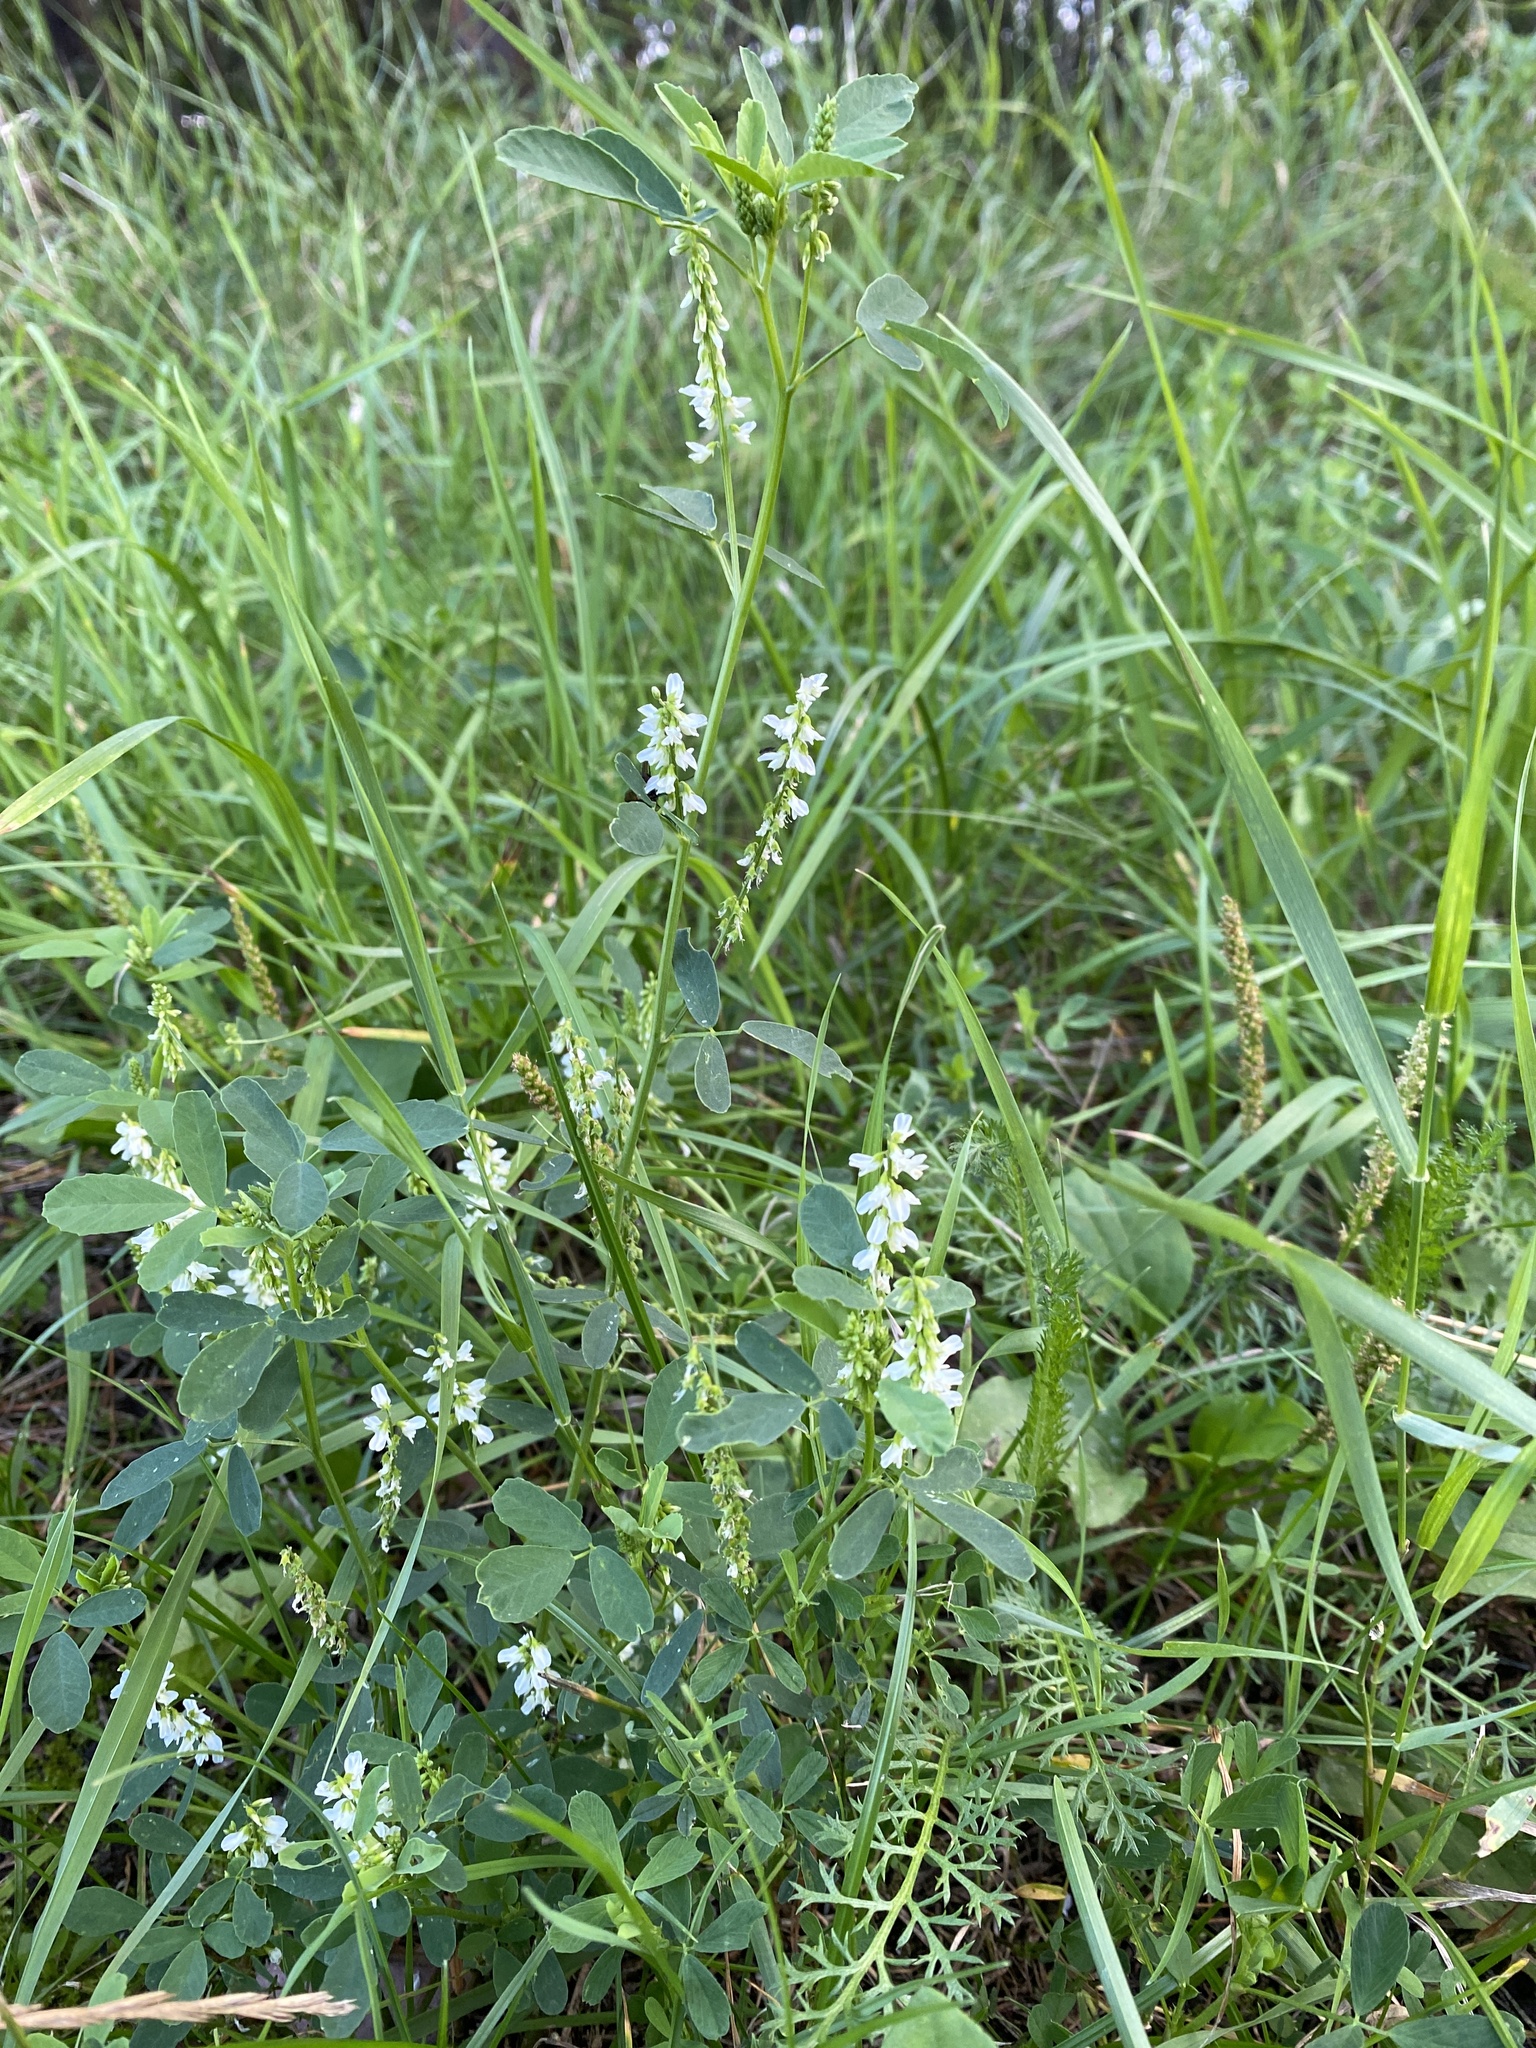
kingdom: Plantae
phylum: Tracheophyta
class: Magnoliopsida
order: Fabales
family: Fabaceae
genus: Melilotus
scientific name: Melilotus albus
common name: White melilot
